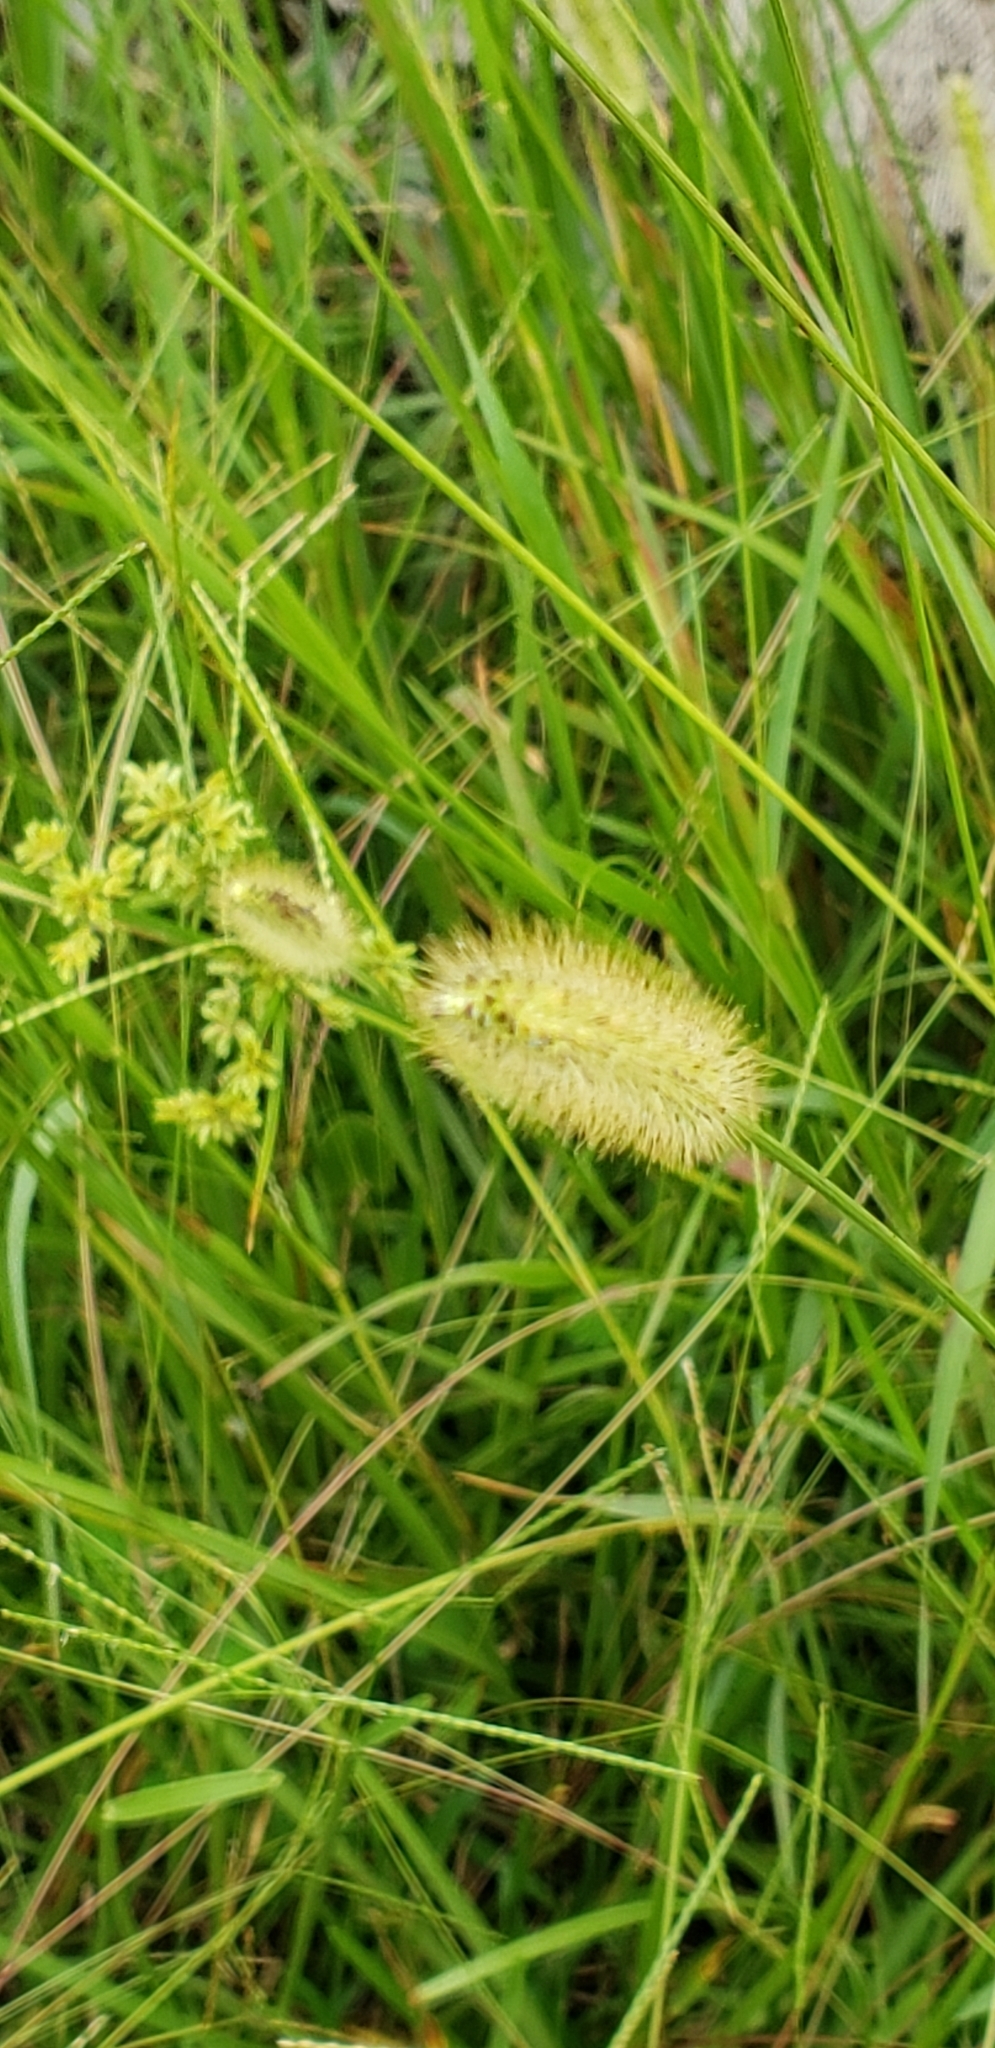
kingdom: Plantae
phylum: Tracheophyta
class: Liliopsida
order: Poales
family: Poaceae
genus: Setaria
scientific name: Setaria parviflora
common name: Knotroot bristle-grass
